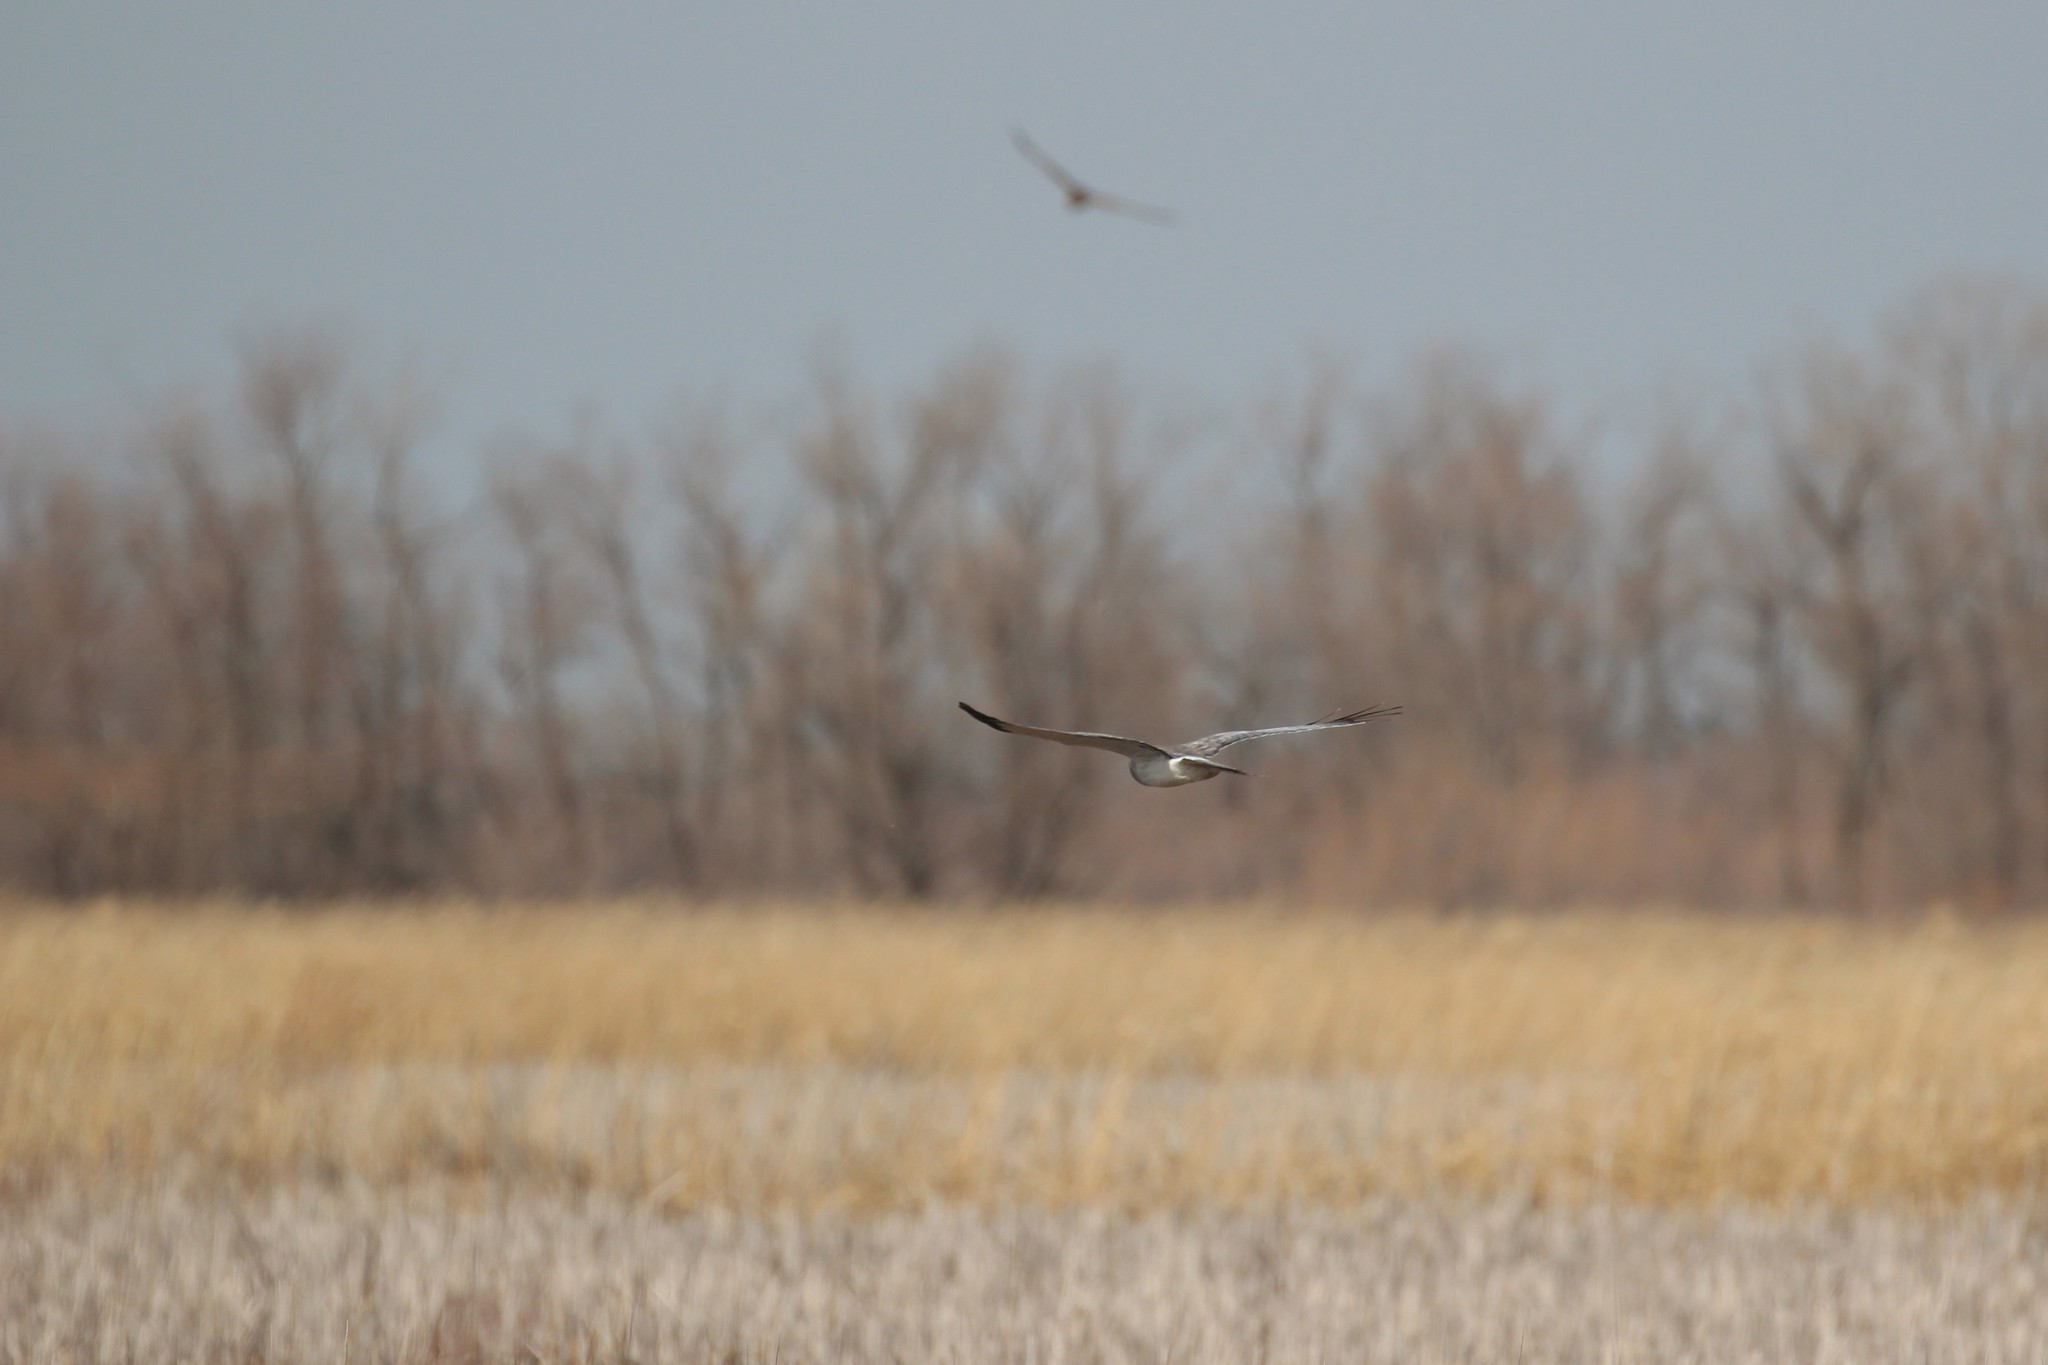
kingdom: Animalia
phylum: Chordata
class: Aves
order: Accipitriformes
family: Accipitridae
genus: Circus
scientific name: Circus cyaneus
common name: Hen harrier
